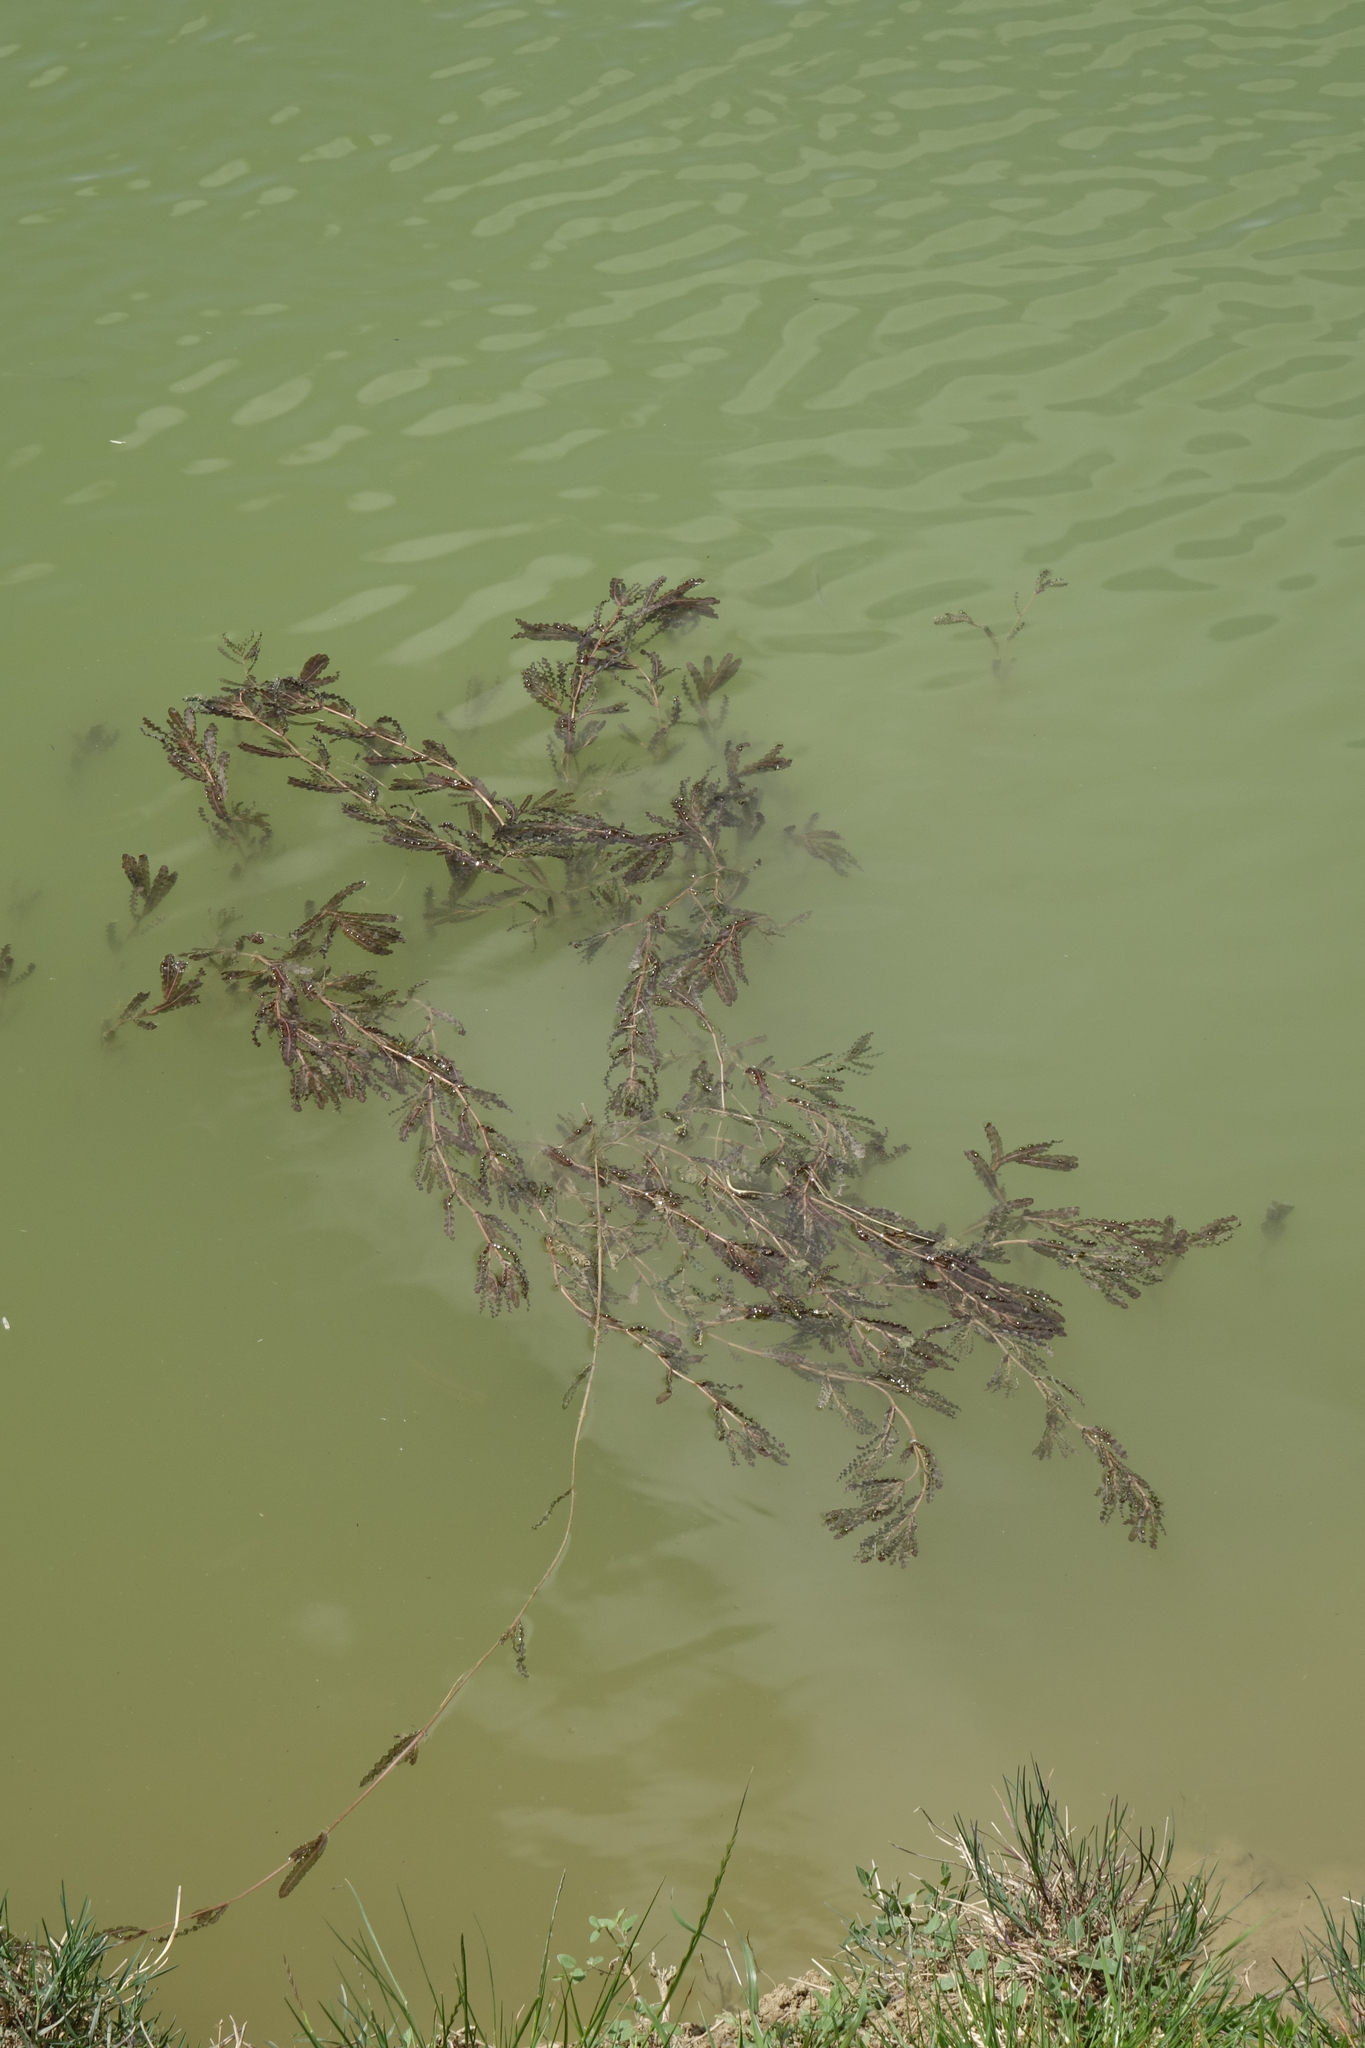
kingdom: Plantae
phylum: Tracheophyta
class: Liliopsida
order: Alismatales
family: Potamogetonaceae
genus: Potamogeton
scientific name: Potamogeton crispus
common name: Curled pondweed
